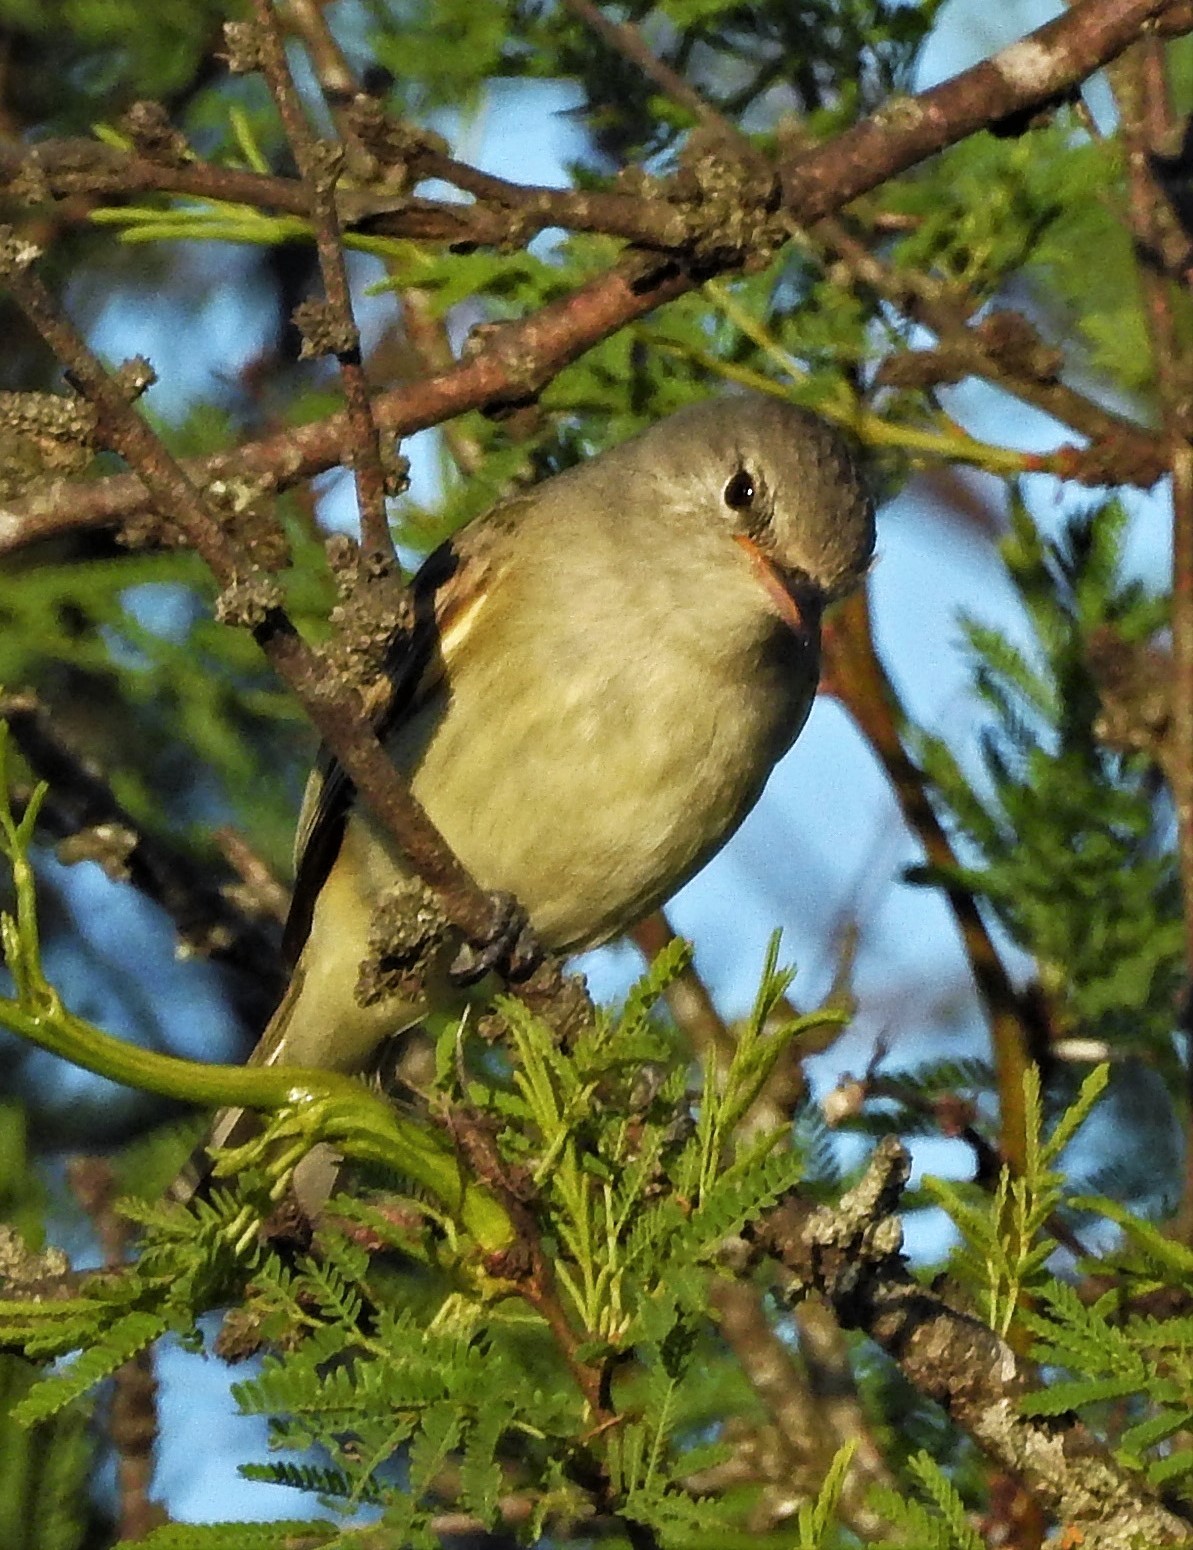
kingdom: Animalia
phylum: Chordata
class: Aves
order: Passeriformes
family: Tyrannidae
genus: Camptostoma
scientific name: Camptostoma obsoletum
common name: Southern beardless-tyrannulet
